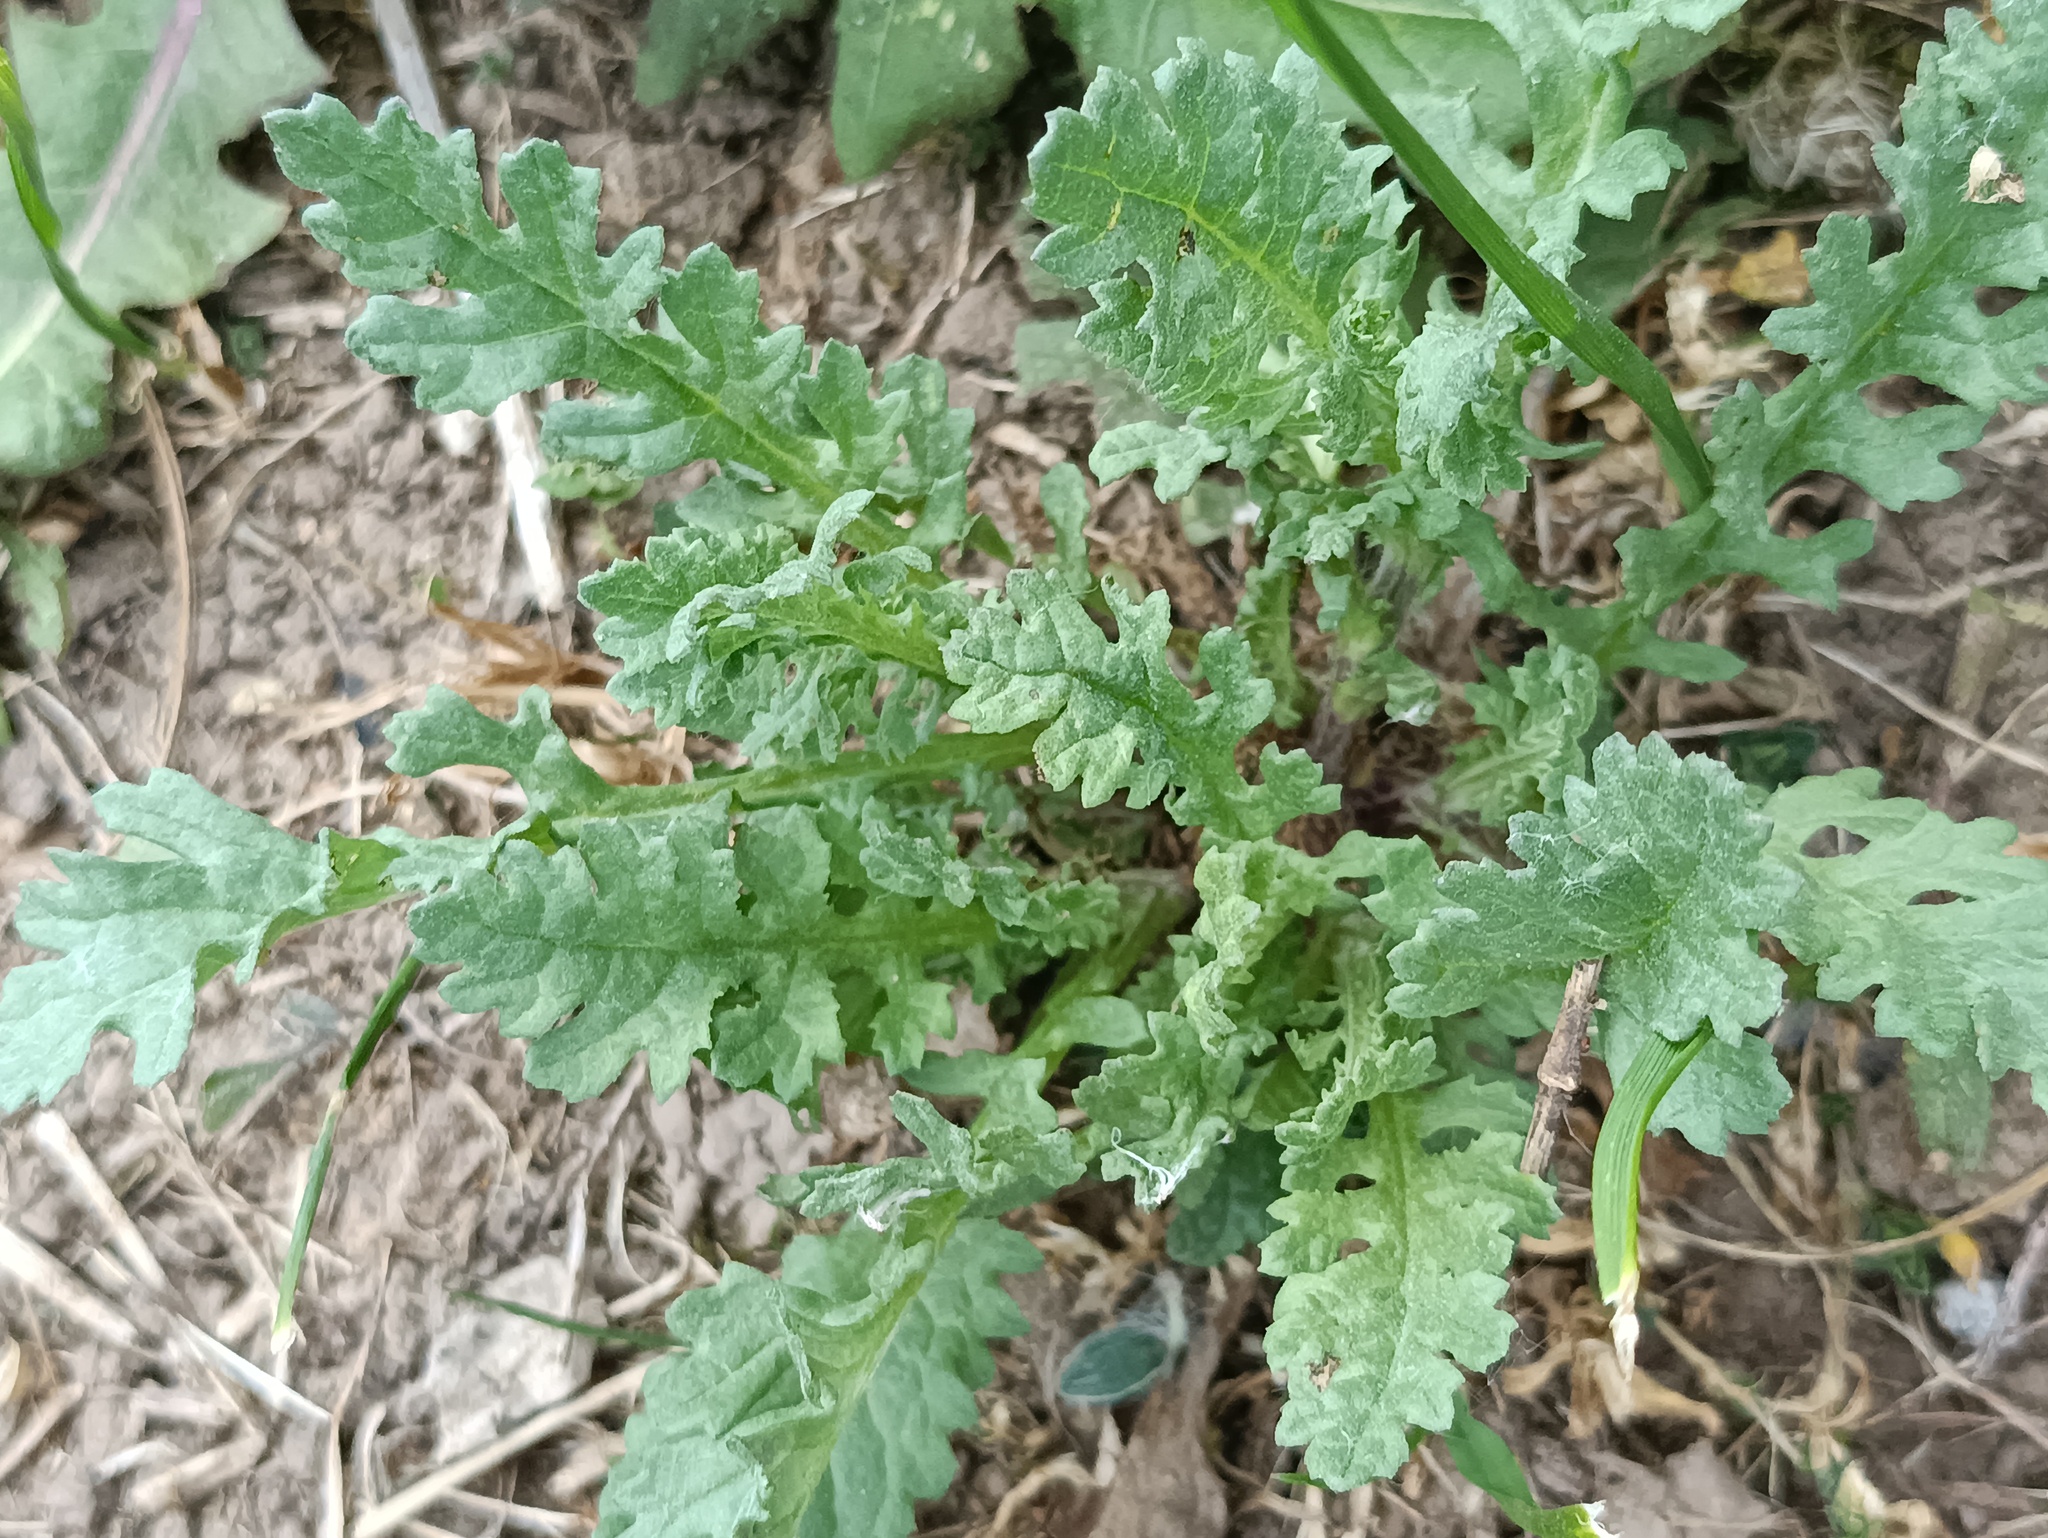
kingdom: Plantae
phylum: Tracheophyta
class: Magnoliopsida
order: Asterales
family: Asteraceae
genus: Jacobaea
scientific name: Jacobaea vulgaris
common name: Stinking willie
